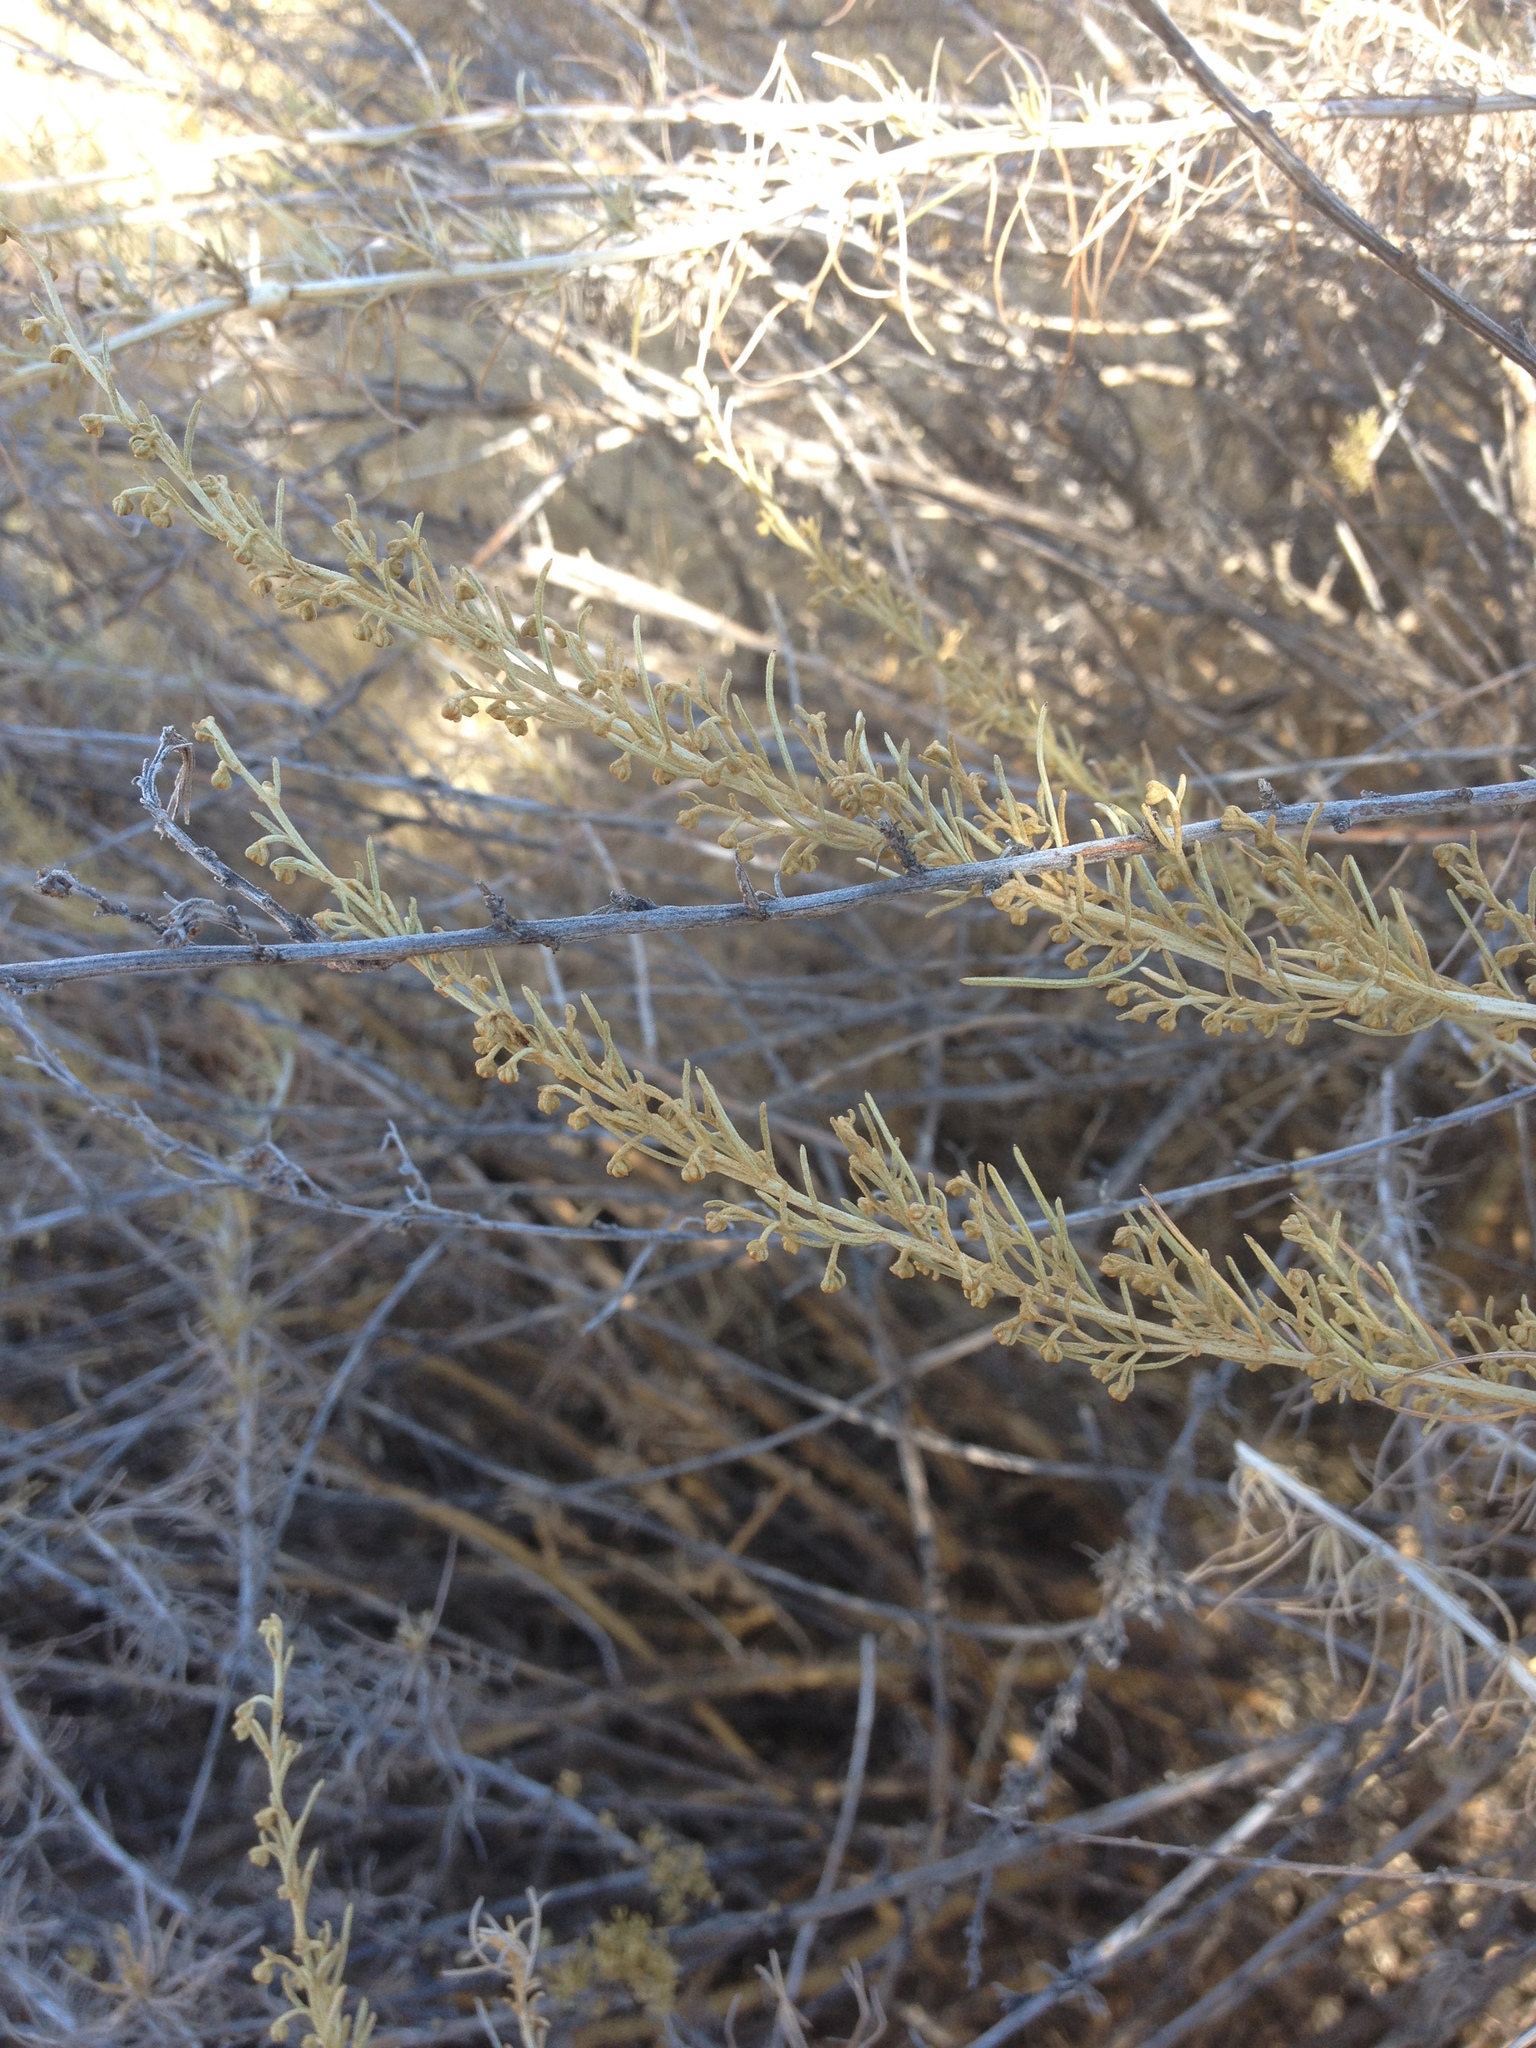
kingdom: Plantae
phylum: Tracheophyta
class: Magnoliopsida
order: Asterales
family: Asteraceae
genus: Artemisia
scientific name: Artemisia californica
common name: California sagebrush
